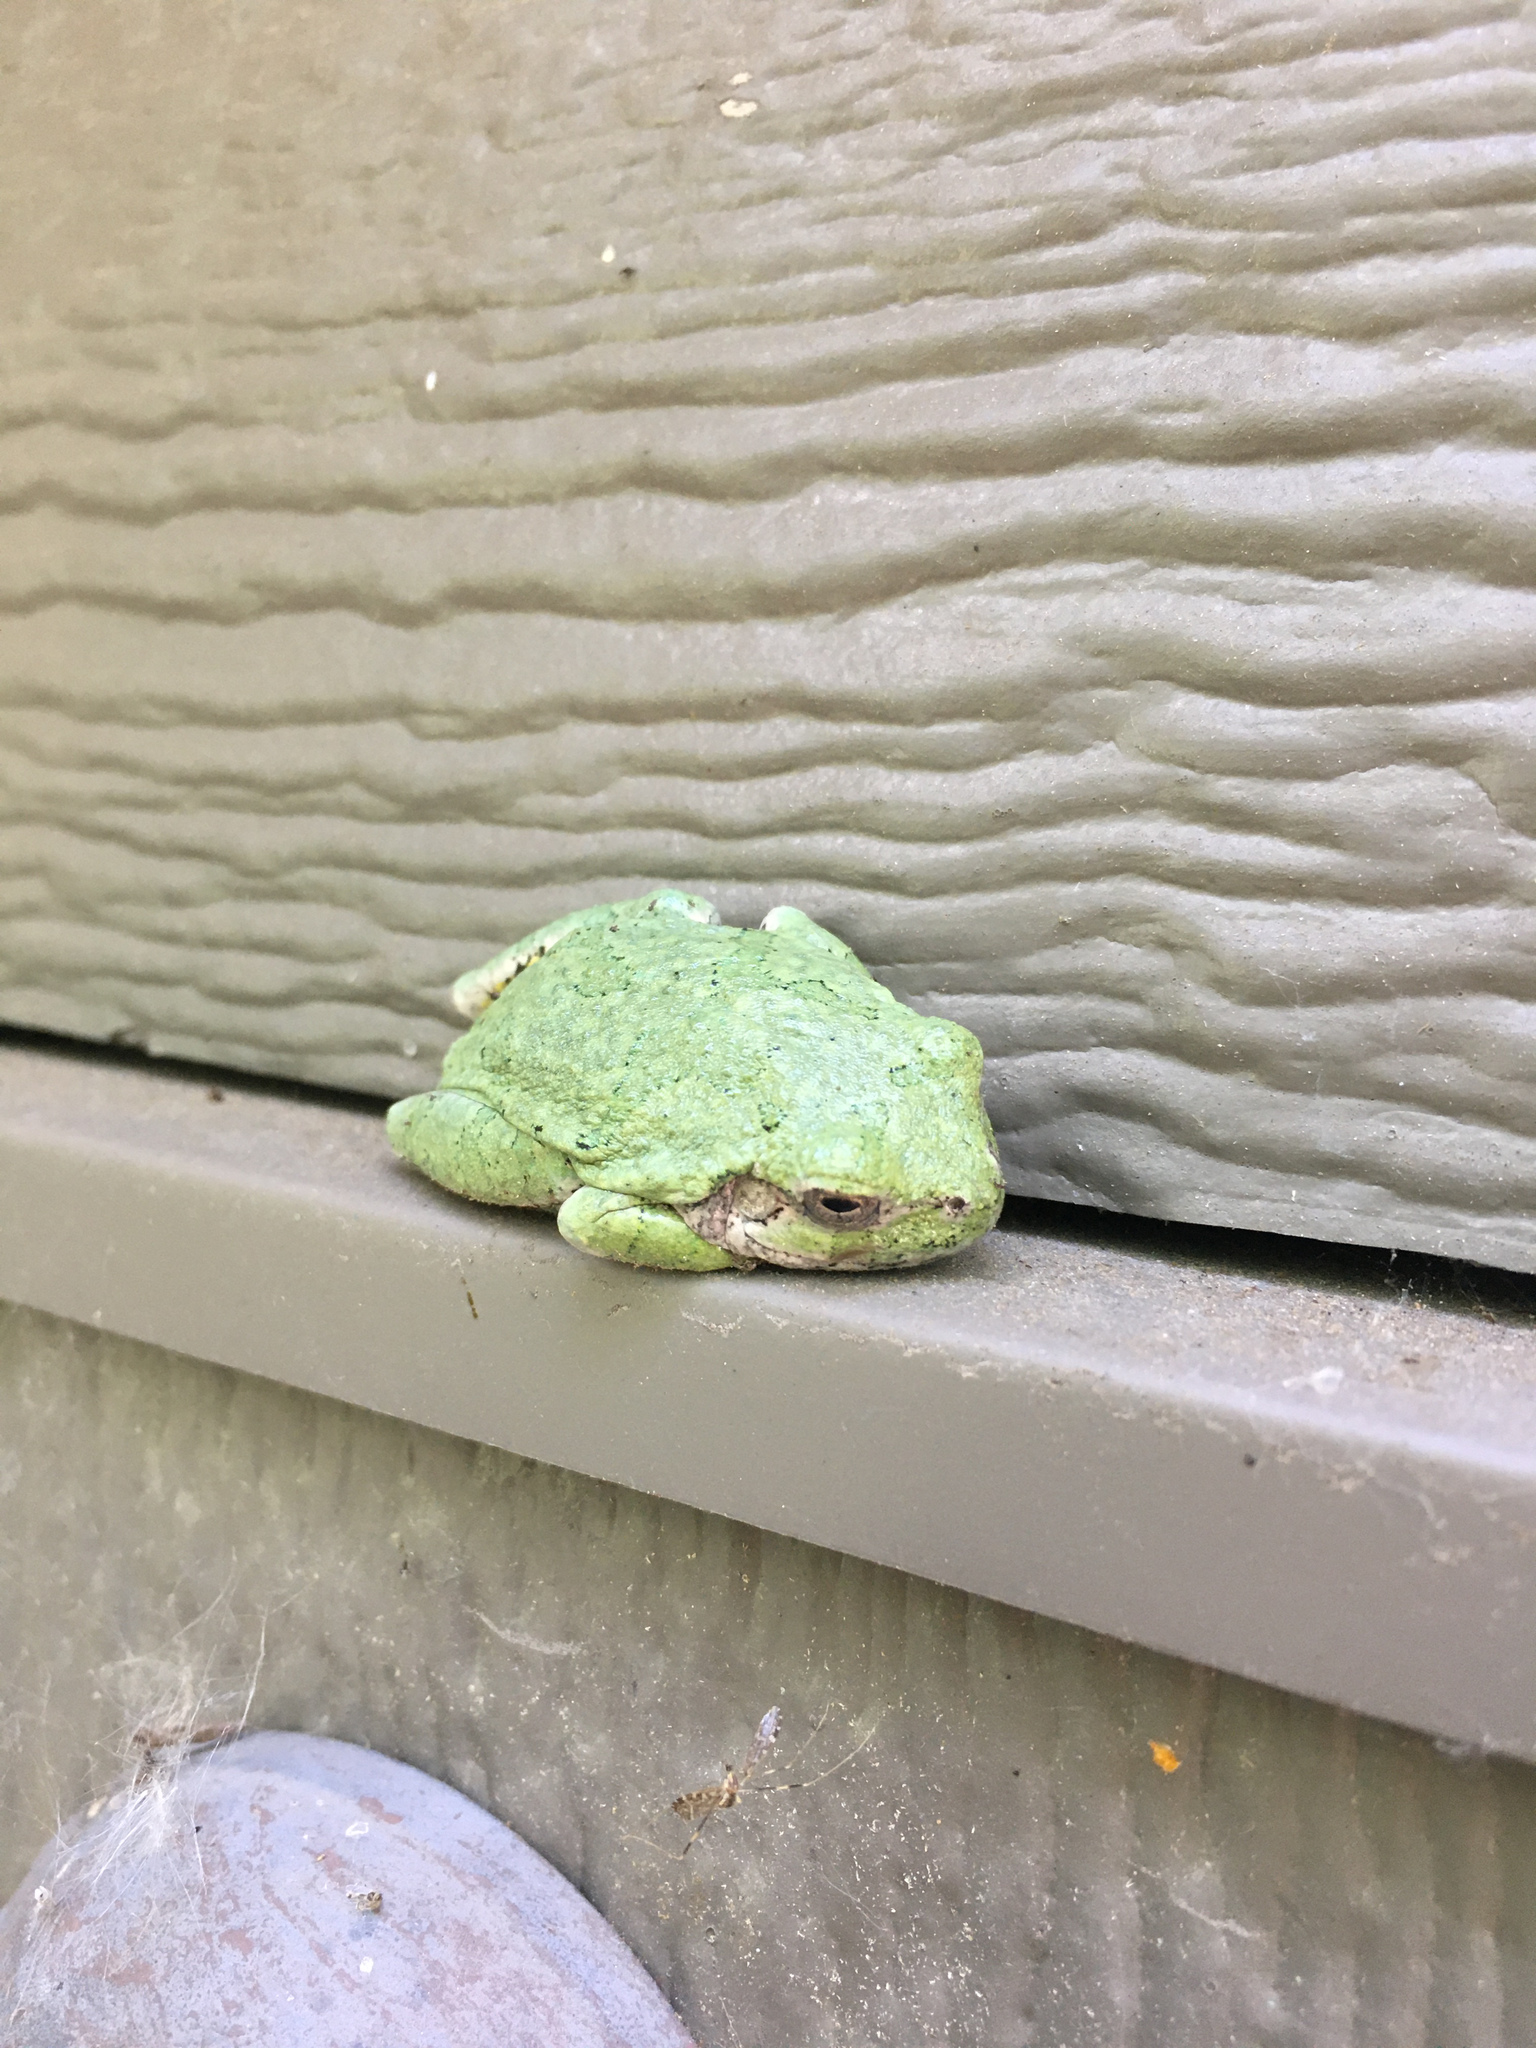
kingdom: Animalia
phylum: Chordata
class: Amphibia
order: Anura
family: Hylidae
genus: Hyla
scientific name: Hyla
